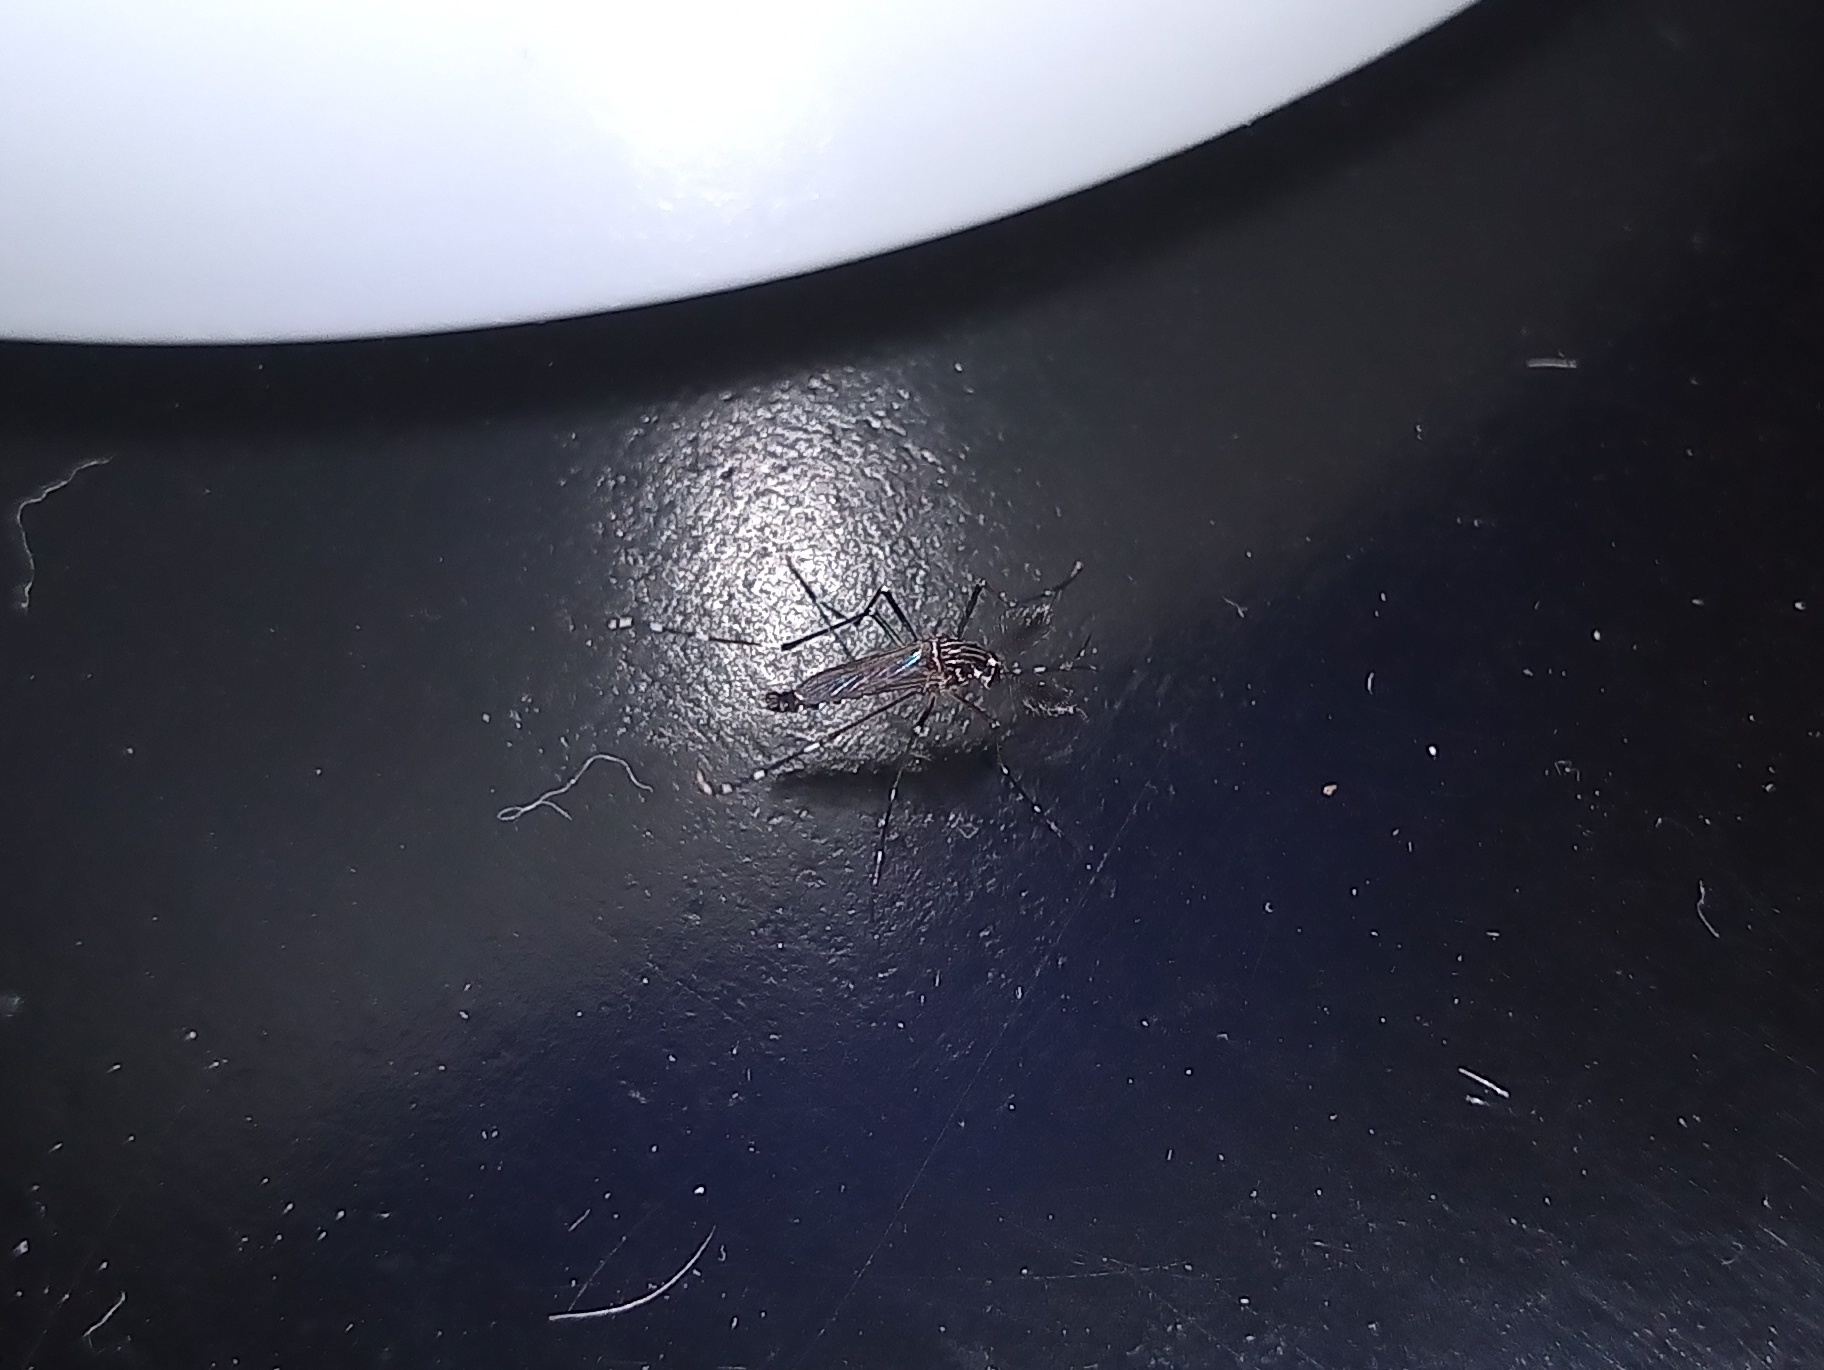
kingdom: Animalia
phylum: Arthropoda
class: Insecta
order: Diptera
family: Culicidae
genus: Aedes
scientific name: Aedes aegypti
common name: Yellow fever mosquito
